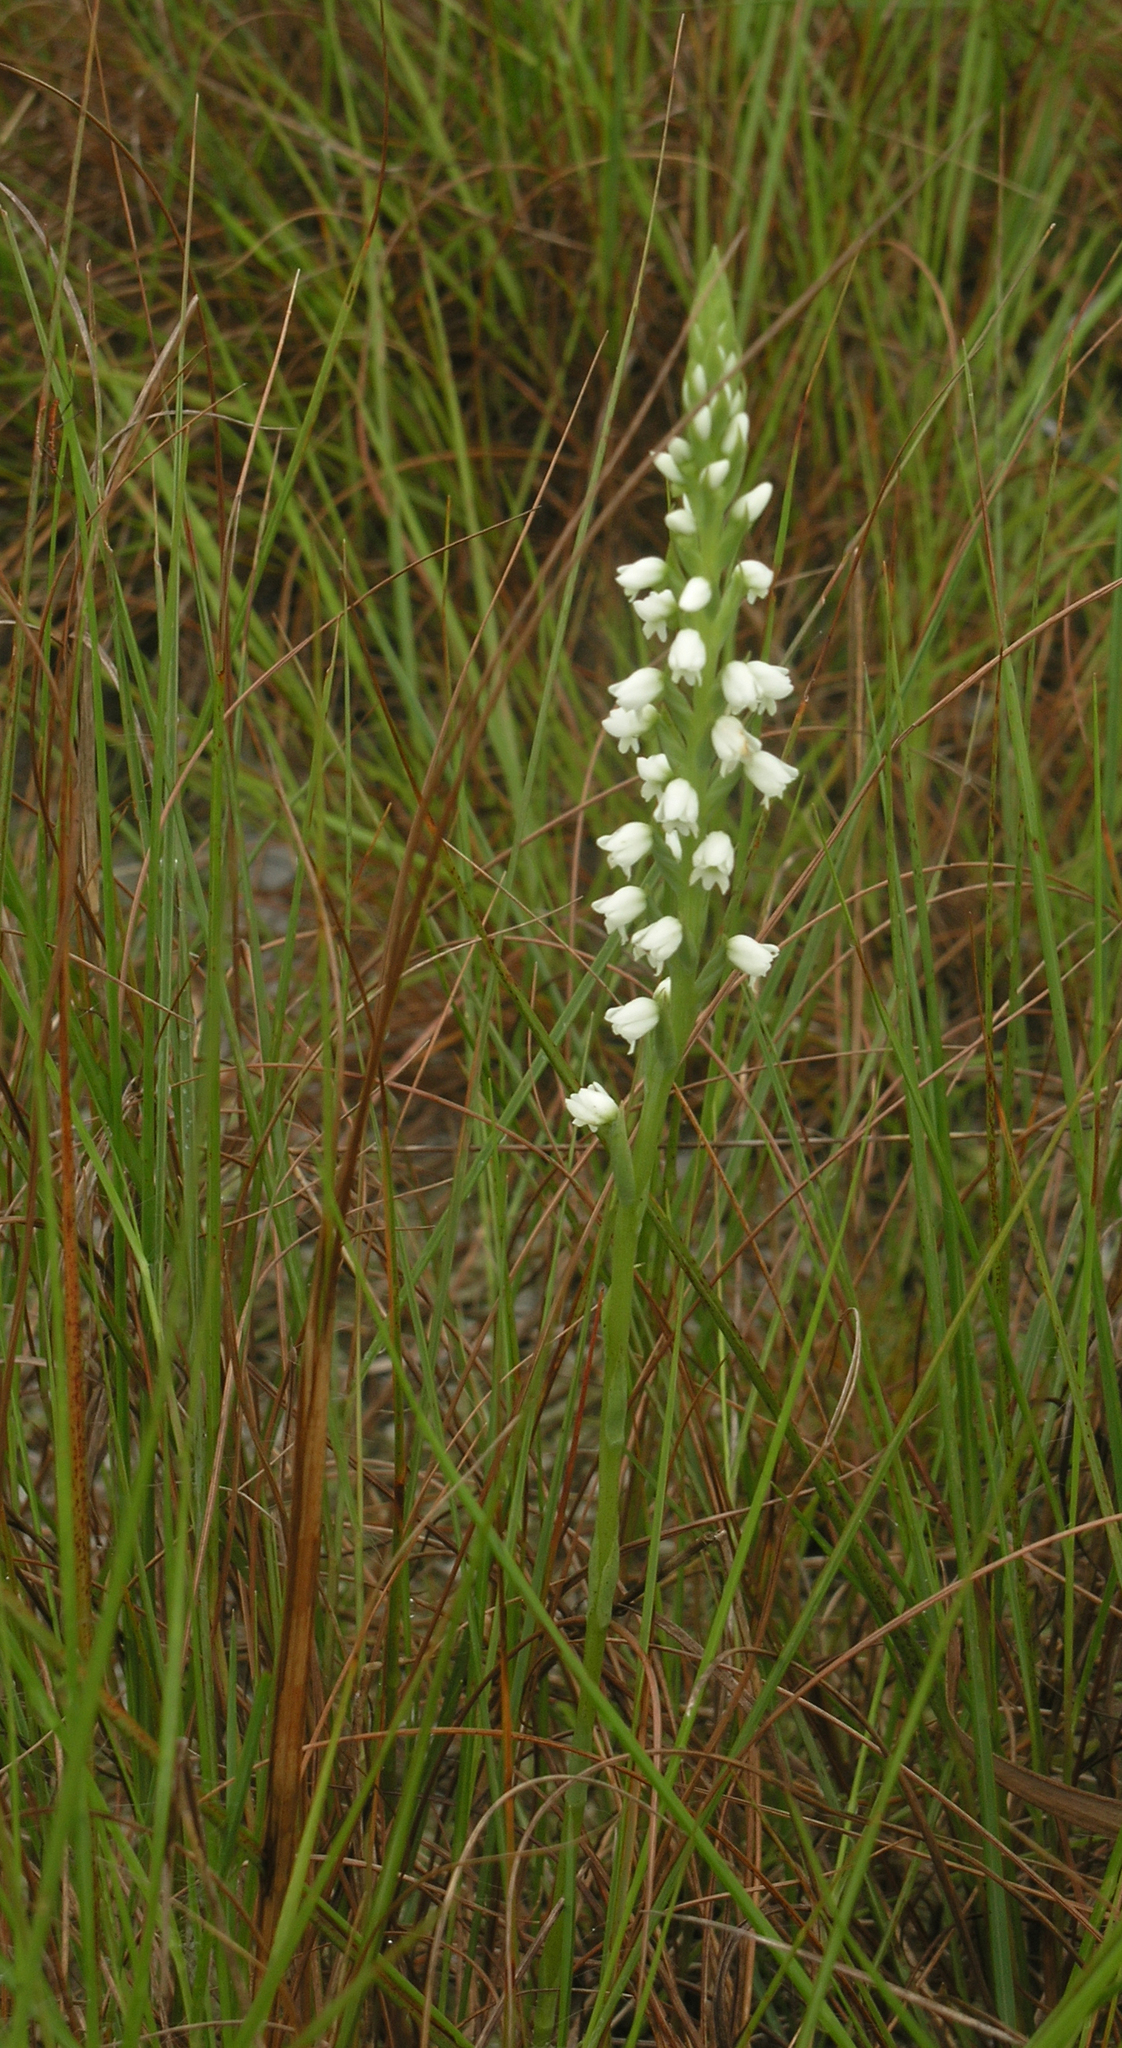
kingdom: Plantae
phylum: Tracheophyta
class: Liliopsida
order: Asparagales
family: Orchidaceae
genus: Peristylus
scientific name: Peristylus lacertifer
